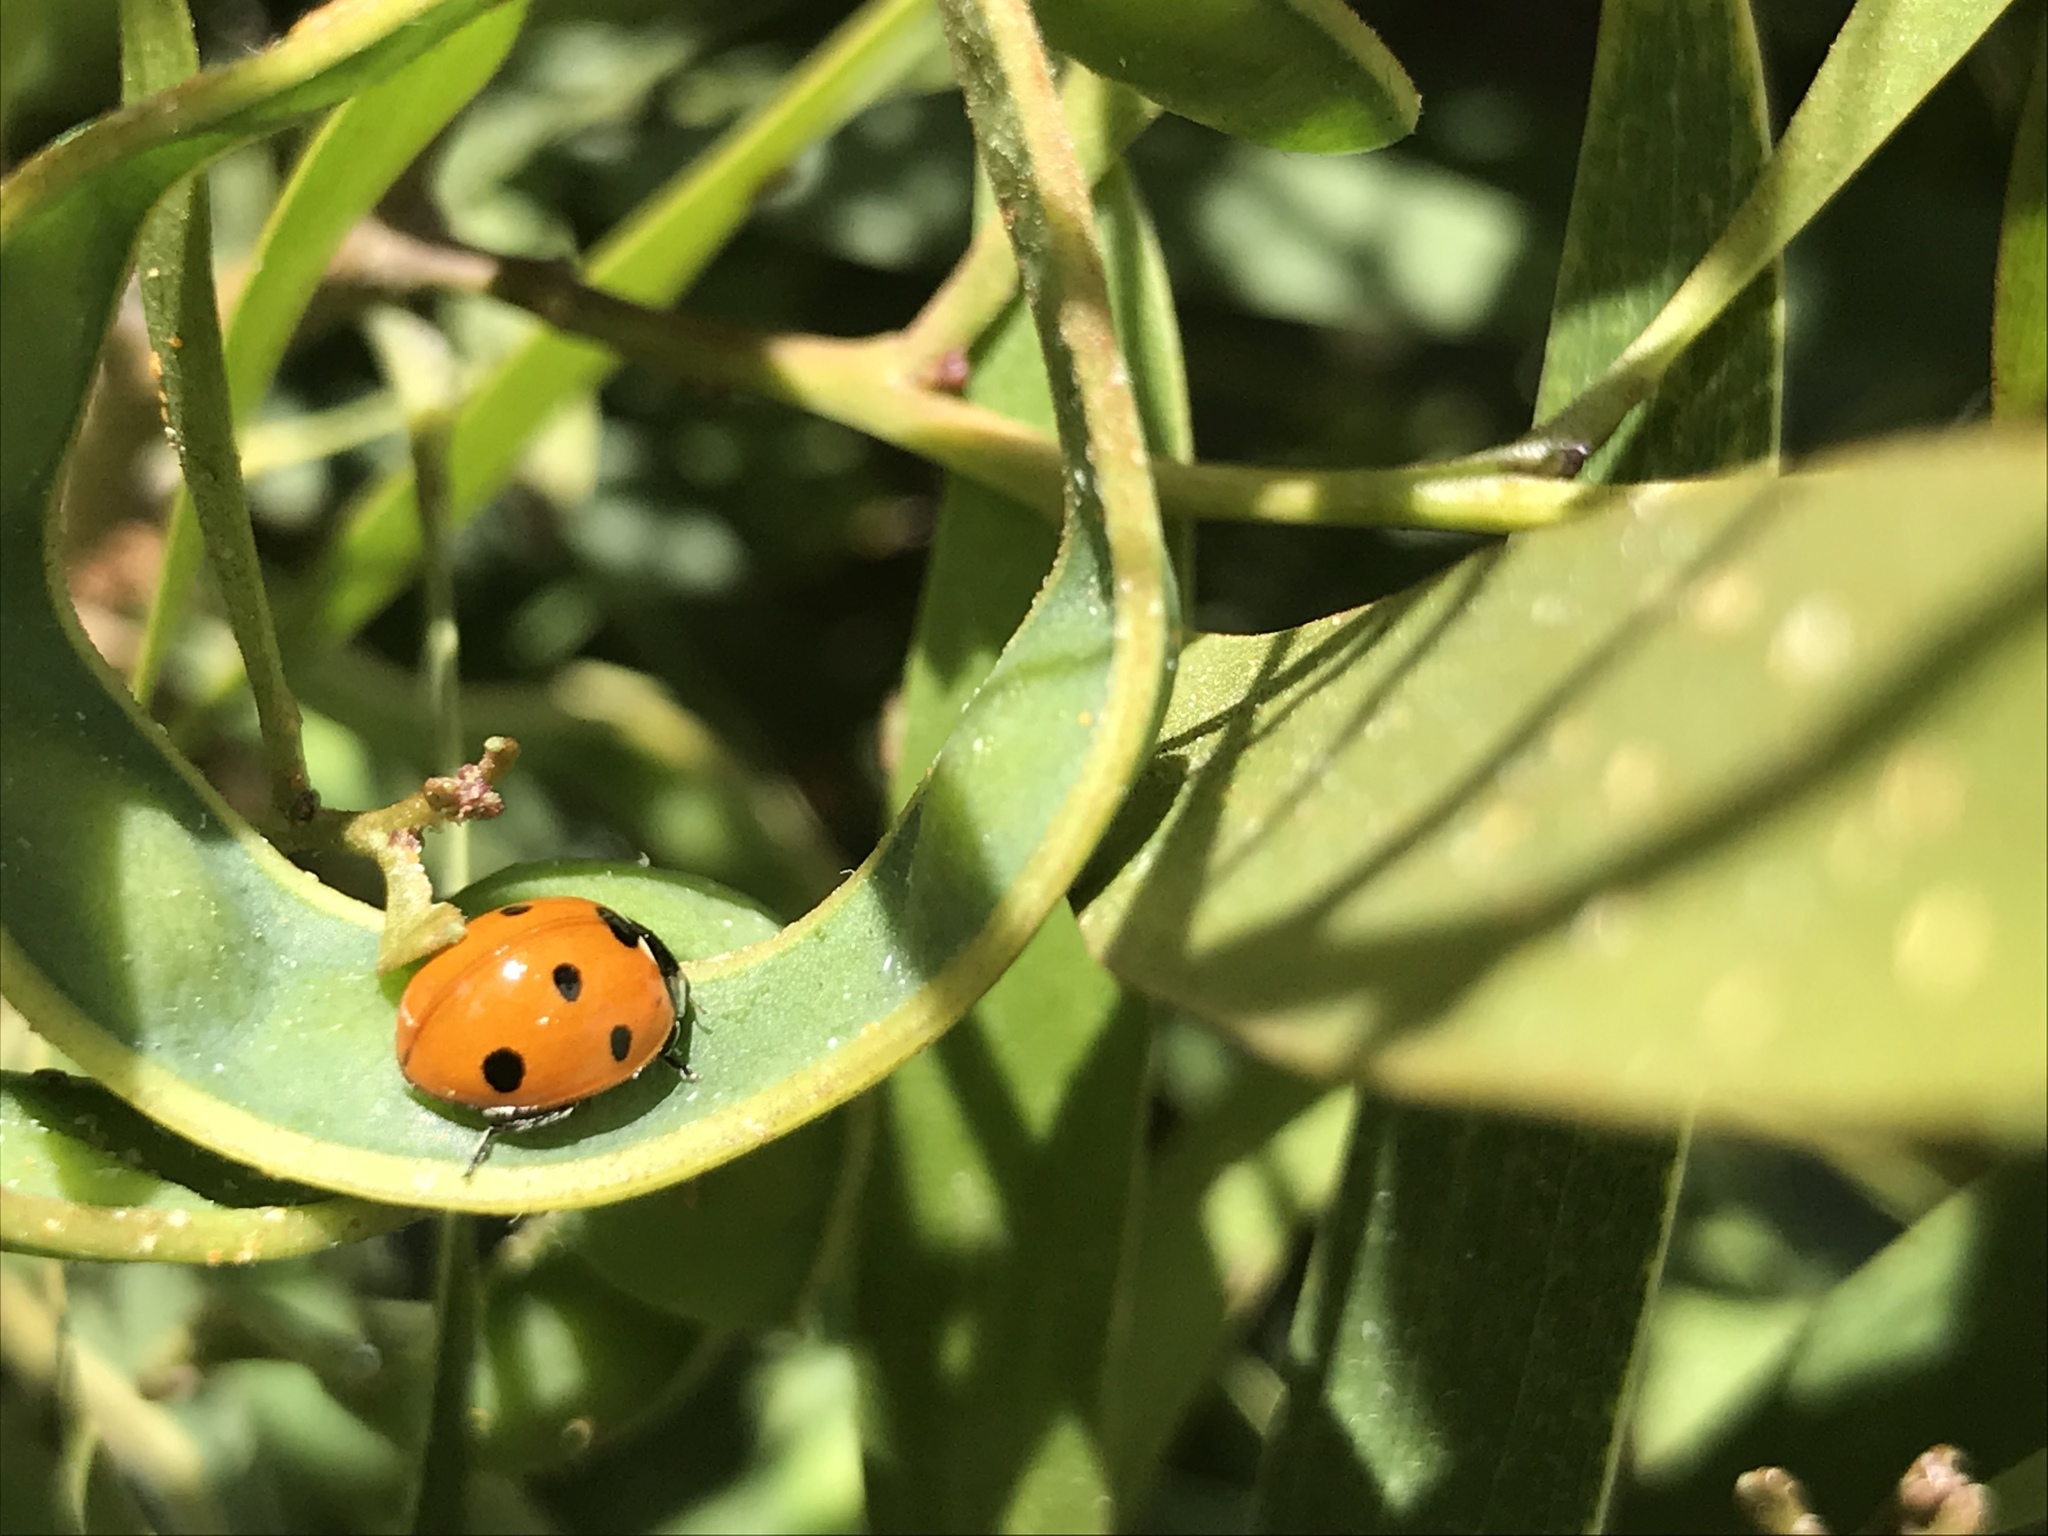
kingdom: Animalia
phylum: Arthropoda
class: Insecta
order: Coleoptera
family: Coccinellidae
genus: Coccinella
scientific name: Coccinella septempunctata
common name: Sevenspotted lady beetle
